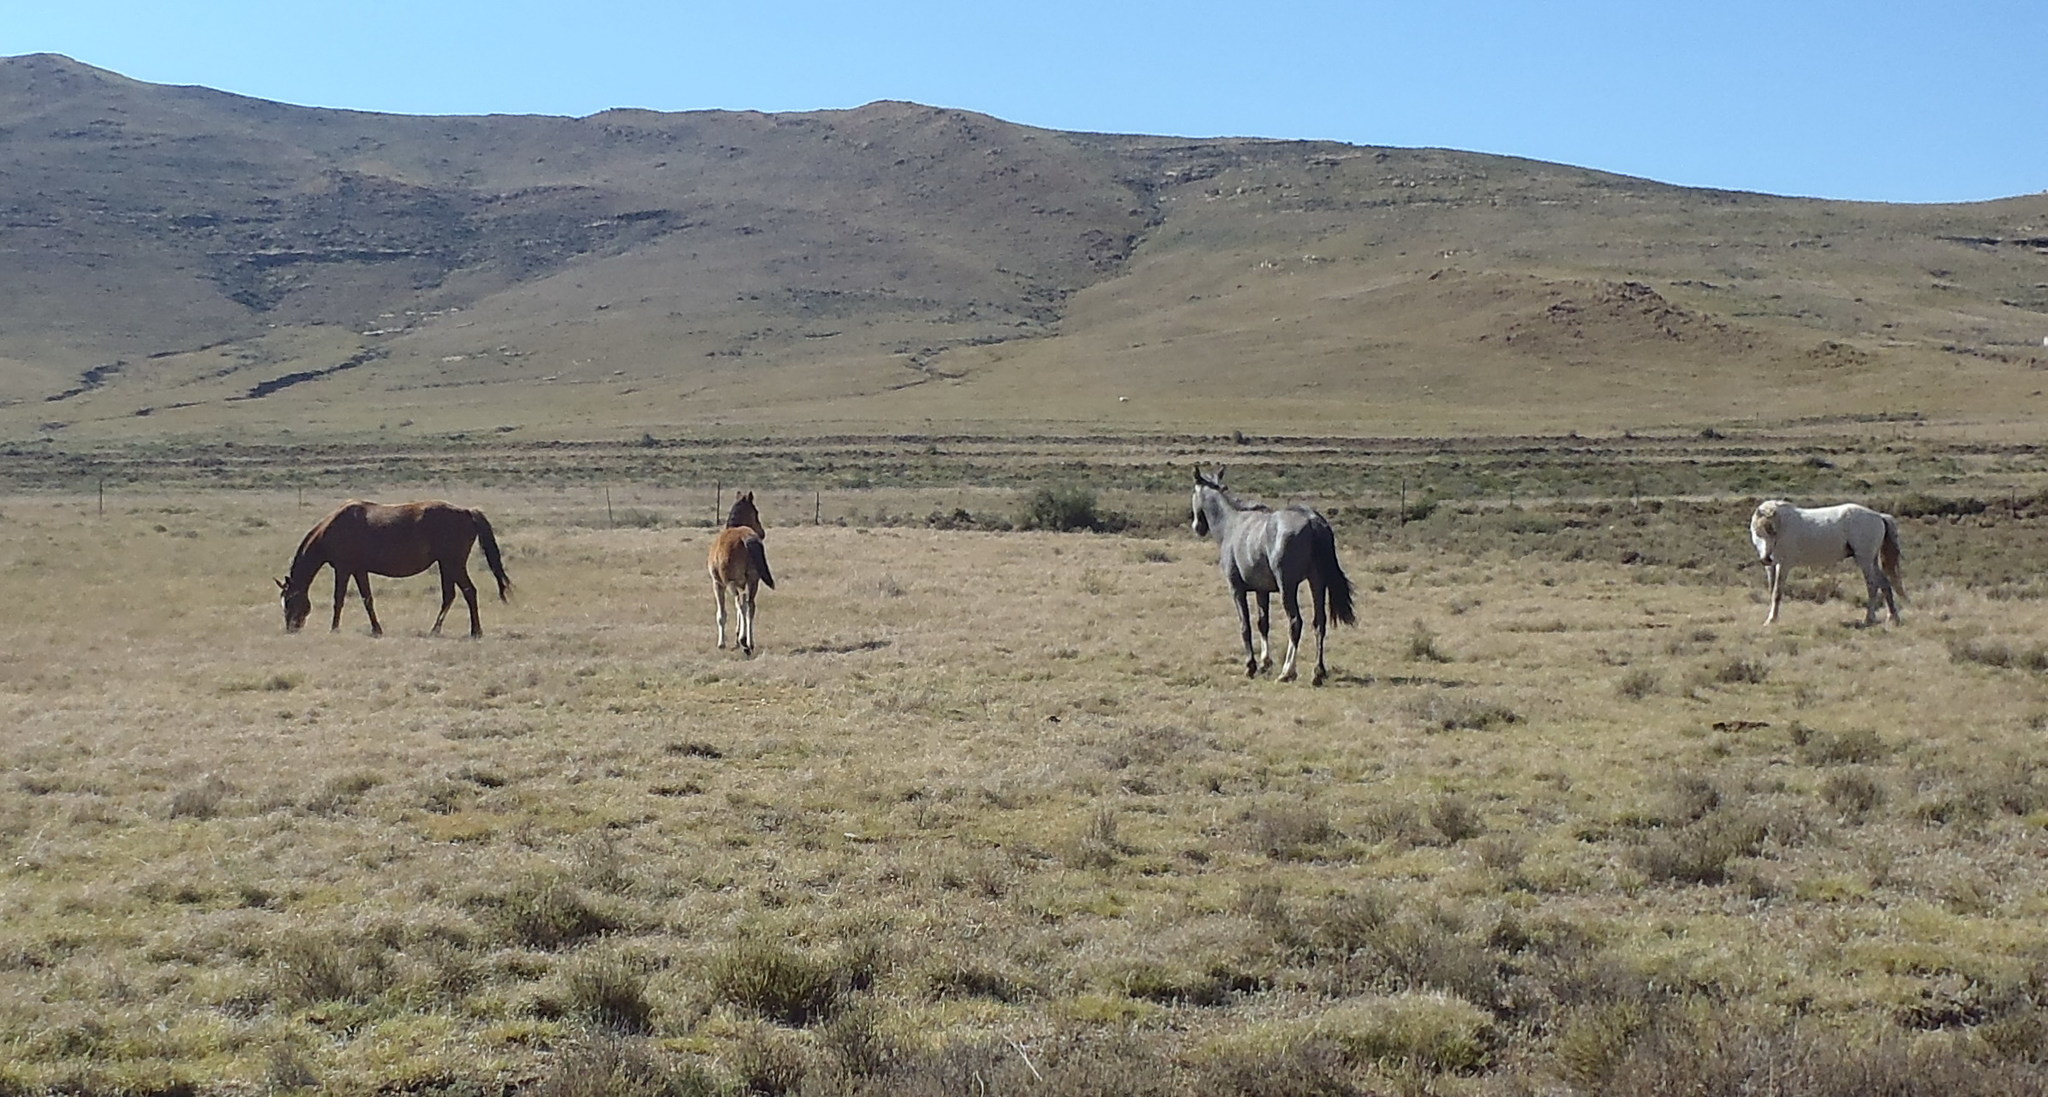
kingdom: Animalia
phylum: Chordata
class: Mammalia
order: Perissodactyla
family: Equidae
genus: Equus
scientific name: Equus caballus
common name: Horse
